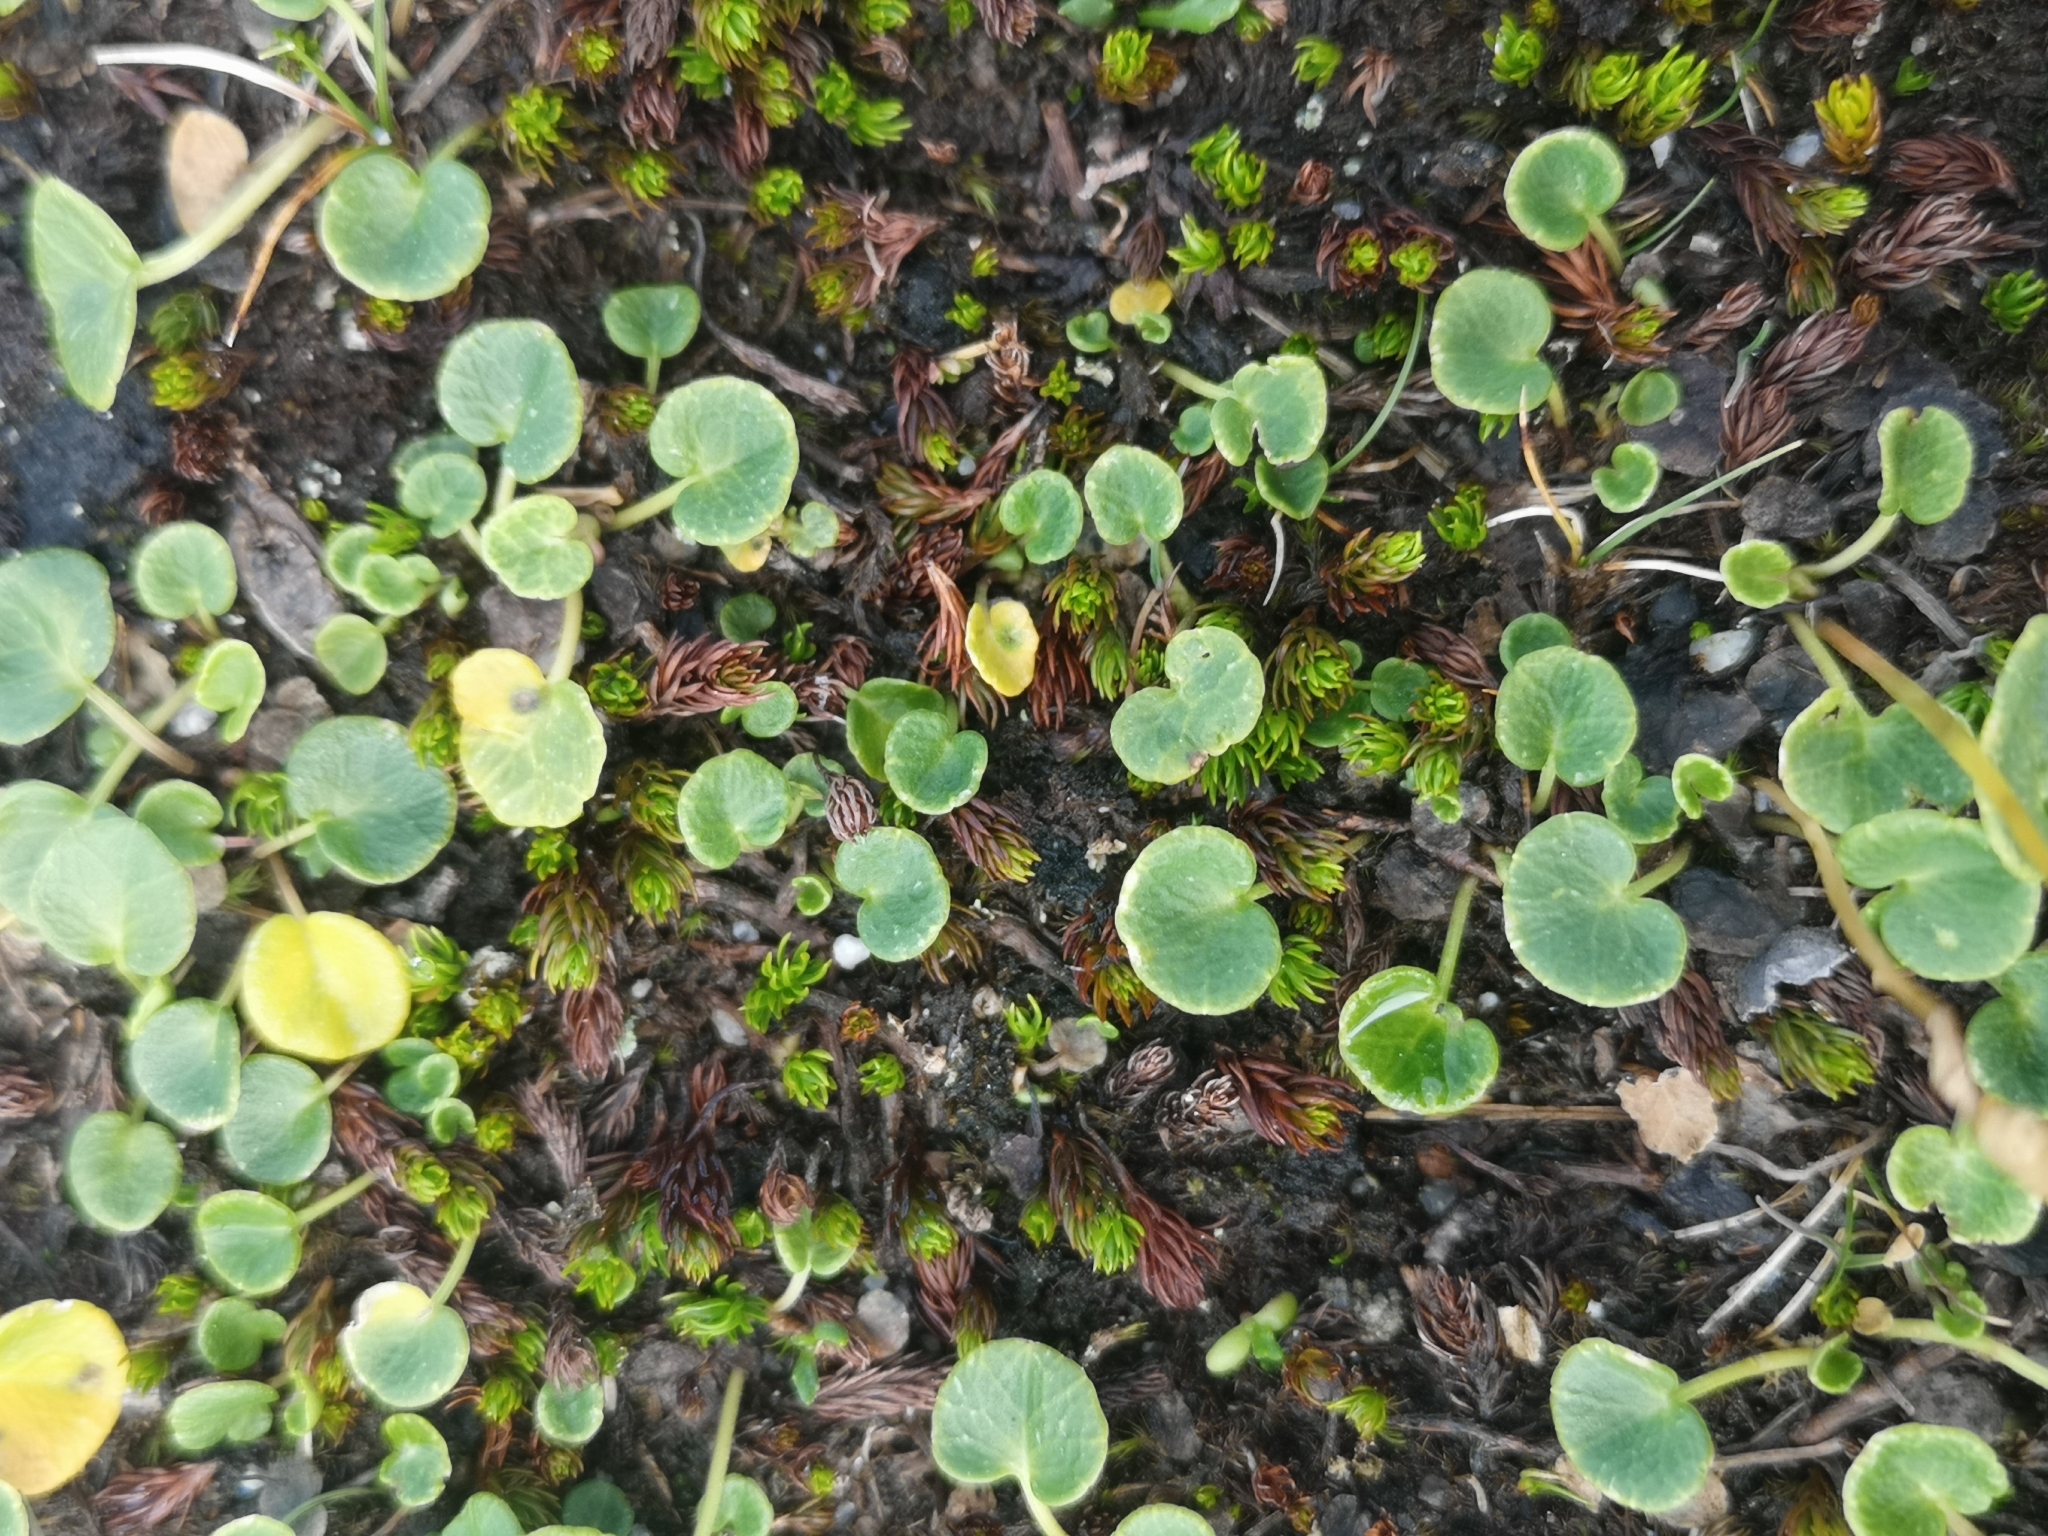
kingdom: Plantae
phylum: Tracheophyta
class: Magnoliopsida
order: Ericales
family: Primulaceae
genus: Soldanella
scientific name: Soldanella pusilla
